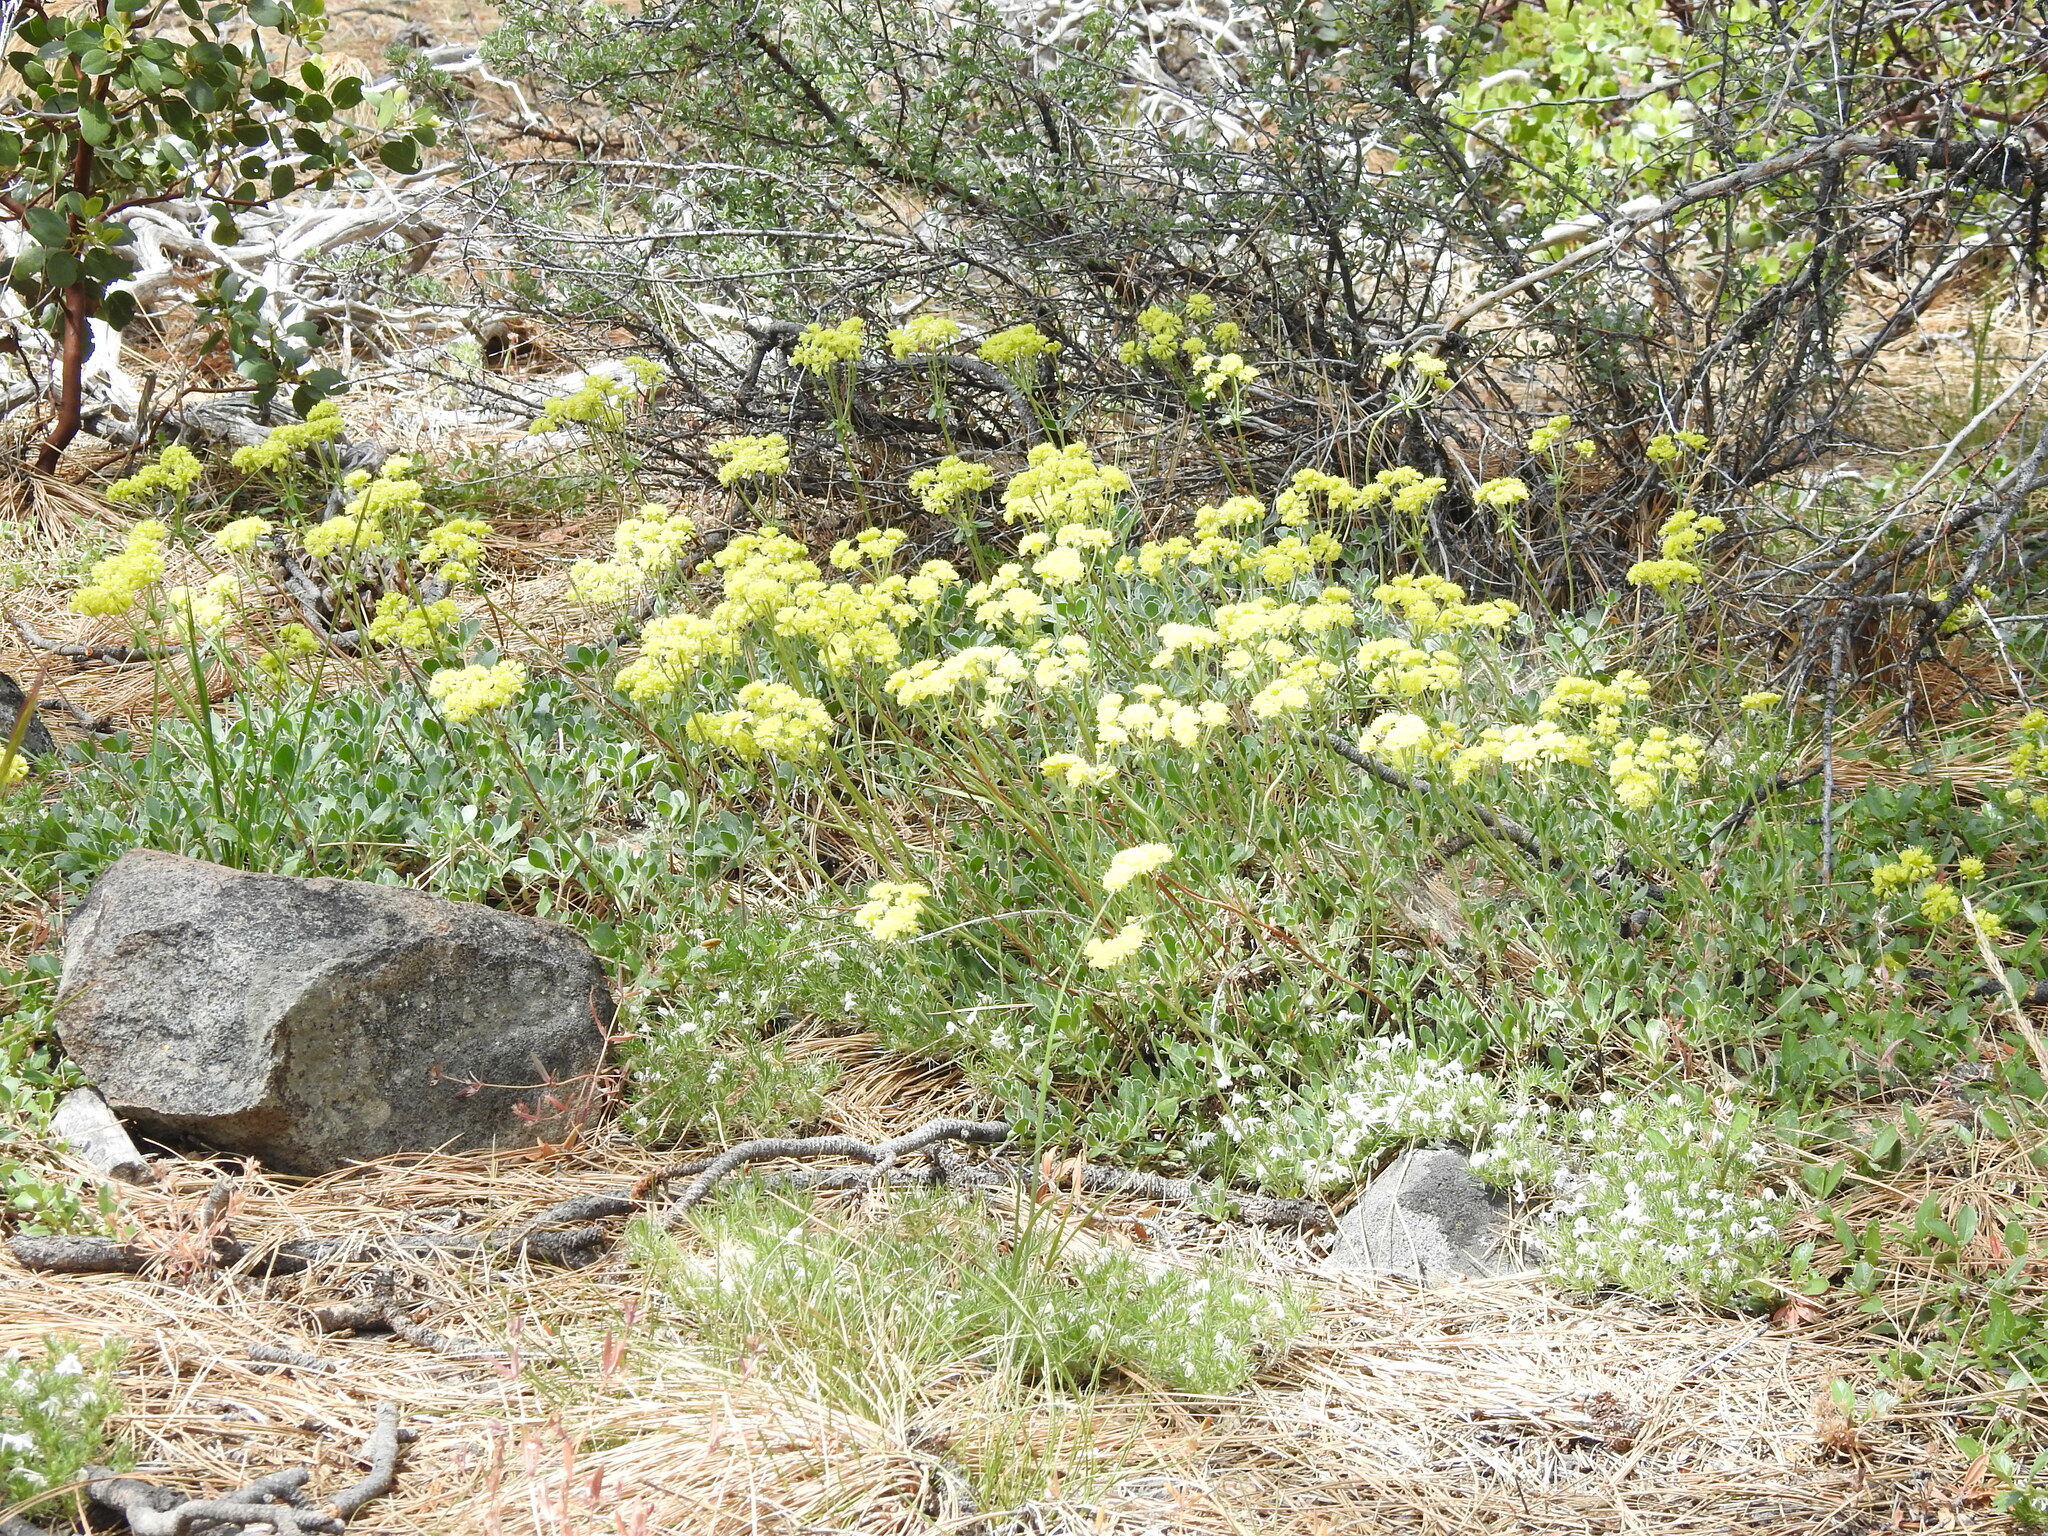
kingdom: Plantae
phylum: Tracheophyta
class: Magnoliopsida
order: Caryophyllales
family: Polygonaceae
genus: Eriogonum
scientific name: Eriogonum umbellatum
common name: Sulfur-buckwheat
